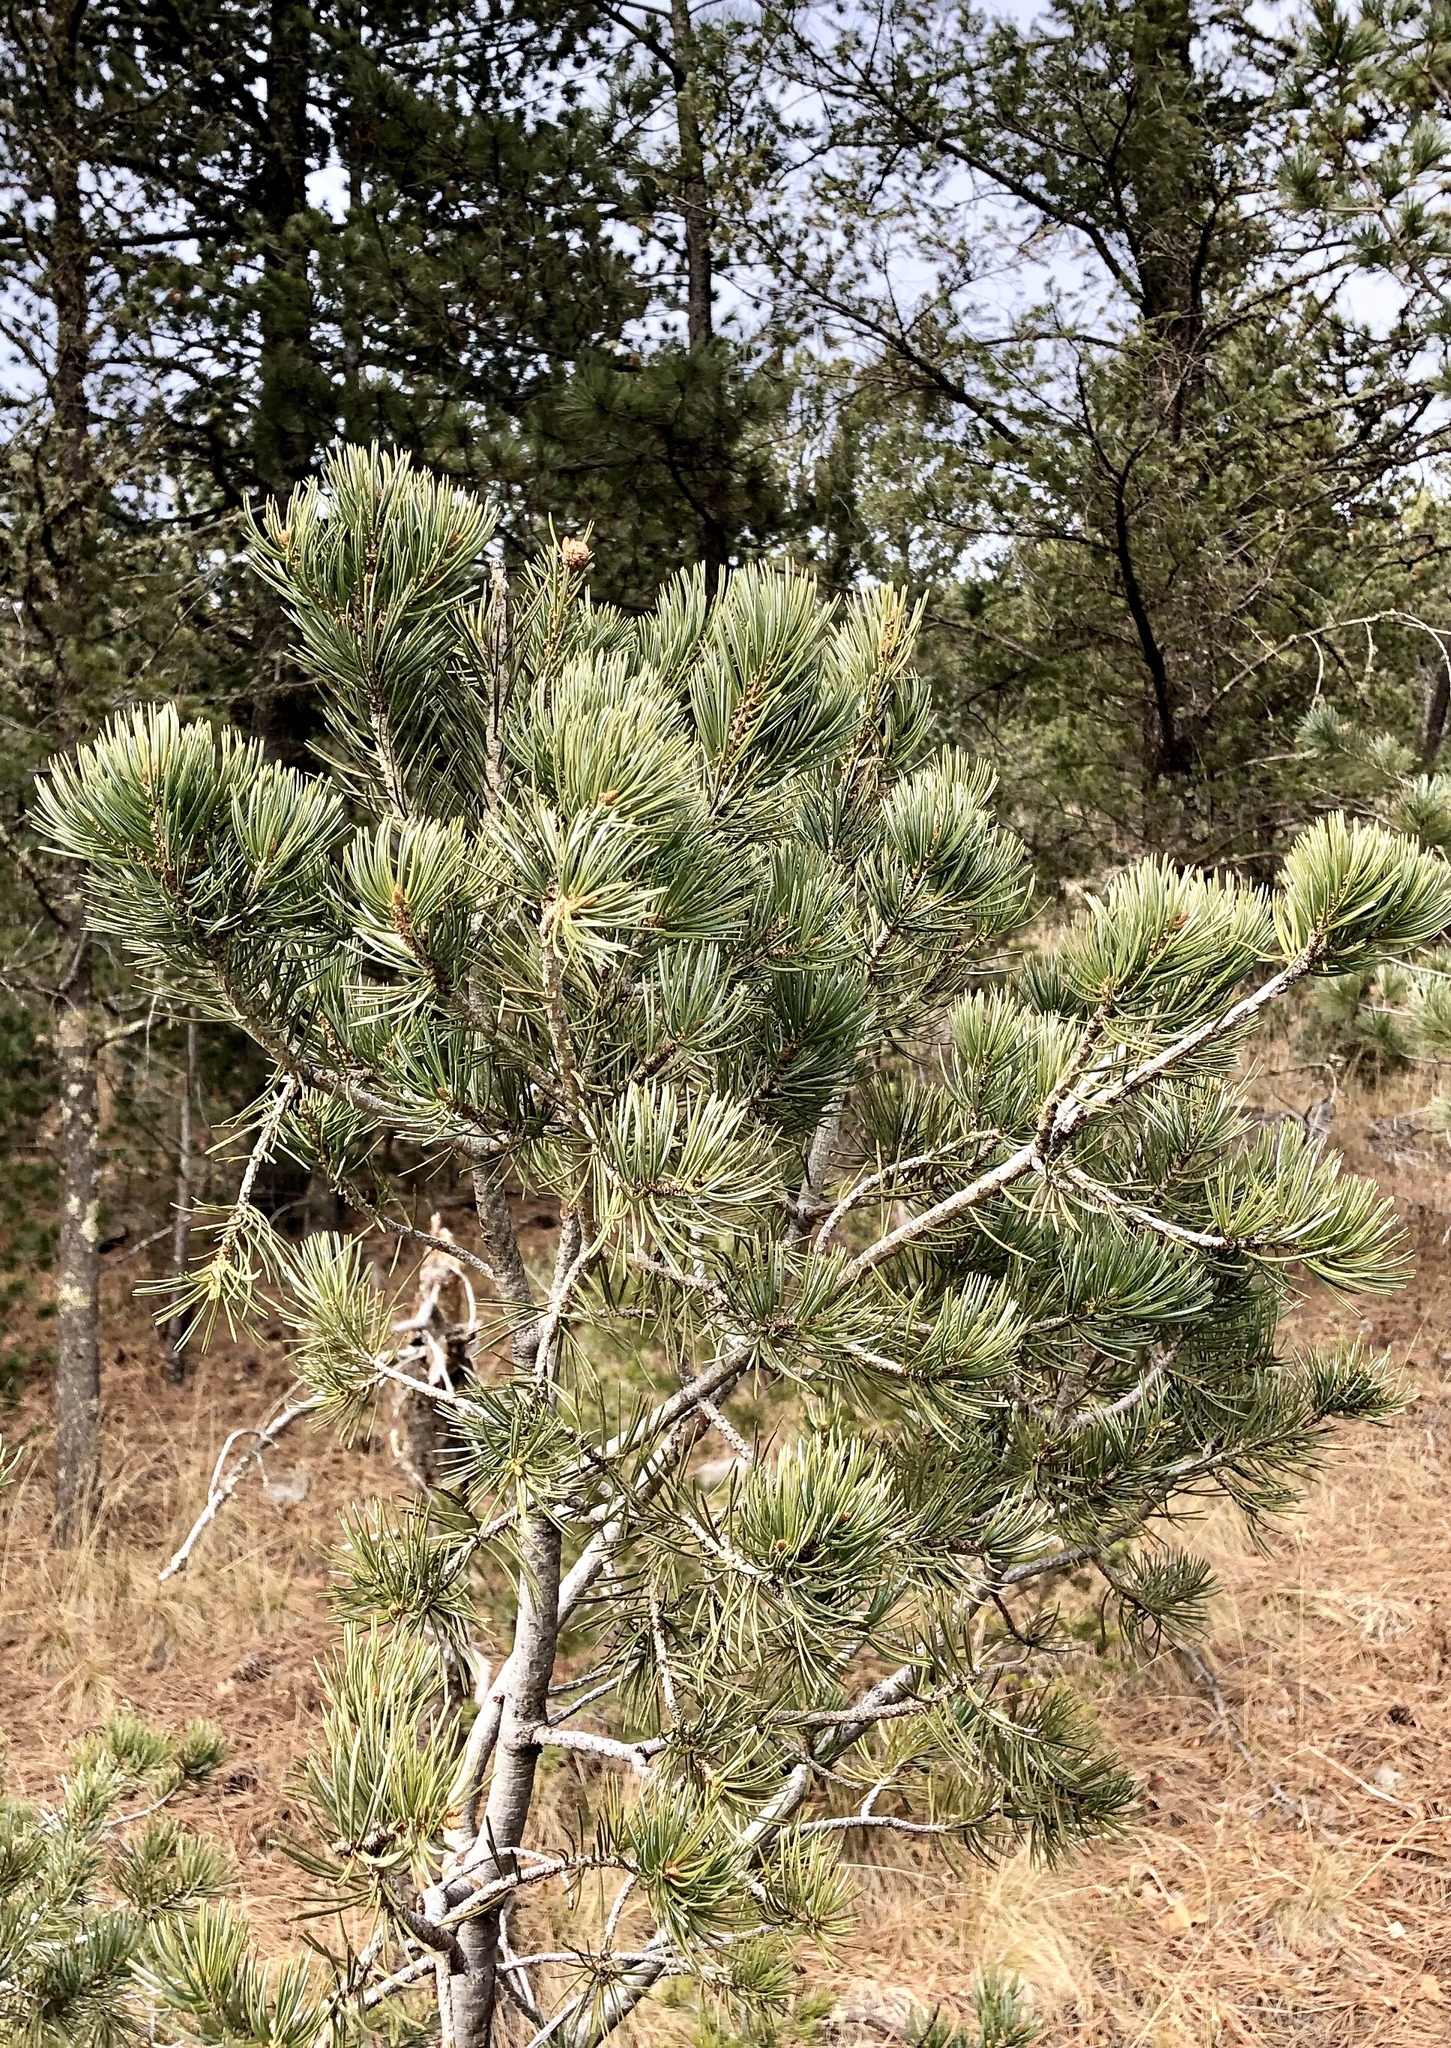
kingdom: Plantae
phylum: Tracheophyta
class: Pinopsida
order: Pinales
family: Pinaceae
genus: Pinus
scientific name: Pinus edulis
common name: Colorado pinyon
